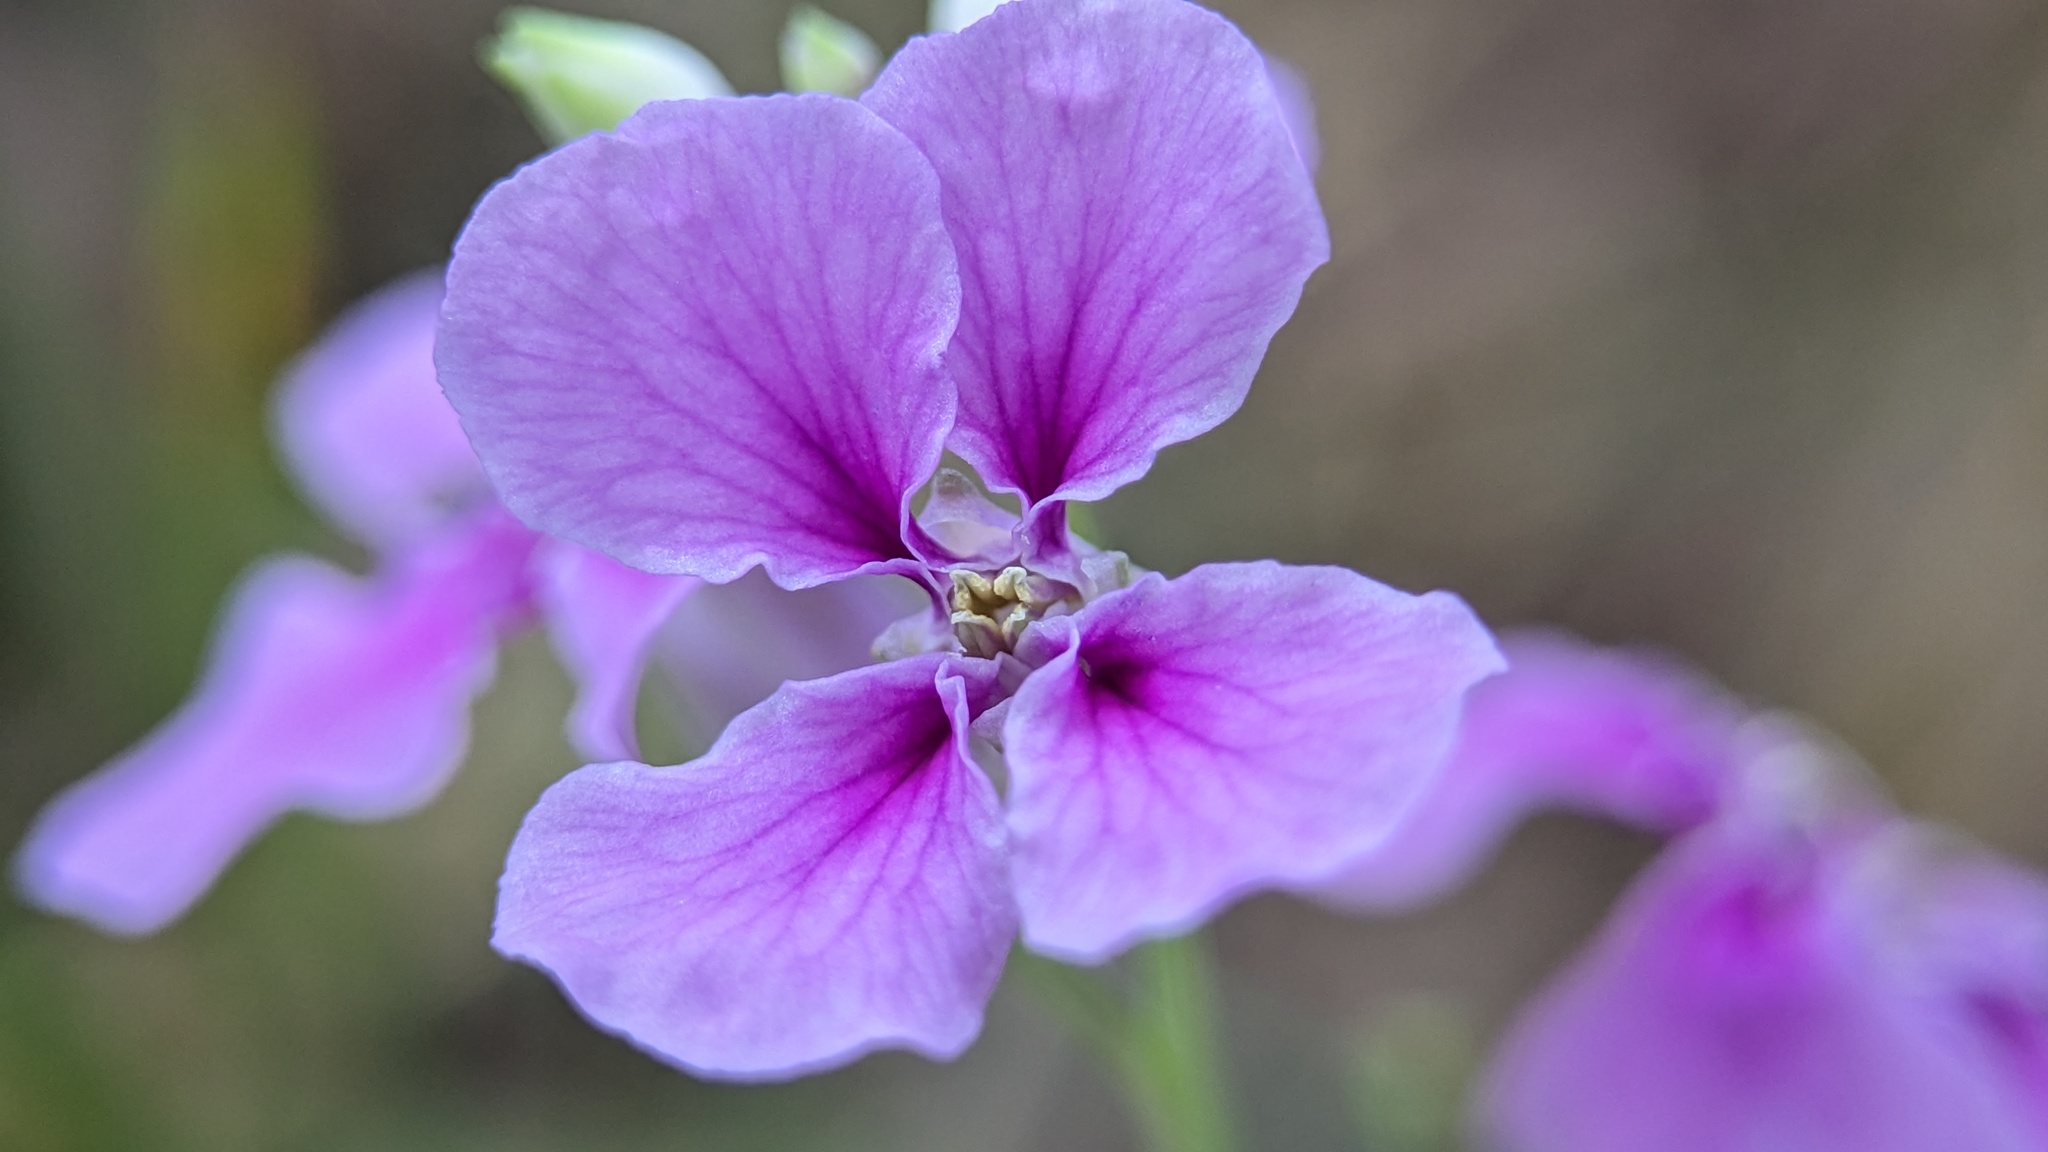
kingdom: Plantae
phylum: Tracheophyta
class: Magnoliopsida
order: Brassicales
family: Brassicaceae
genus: Streptanthus
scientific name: Streptanthus maculatus
